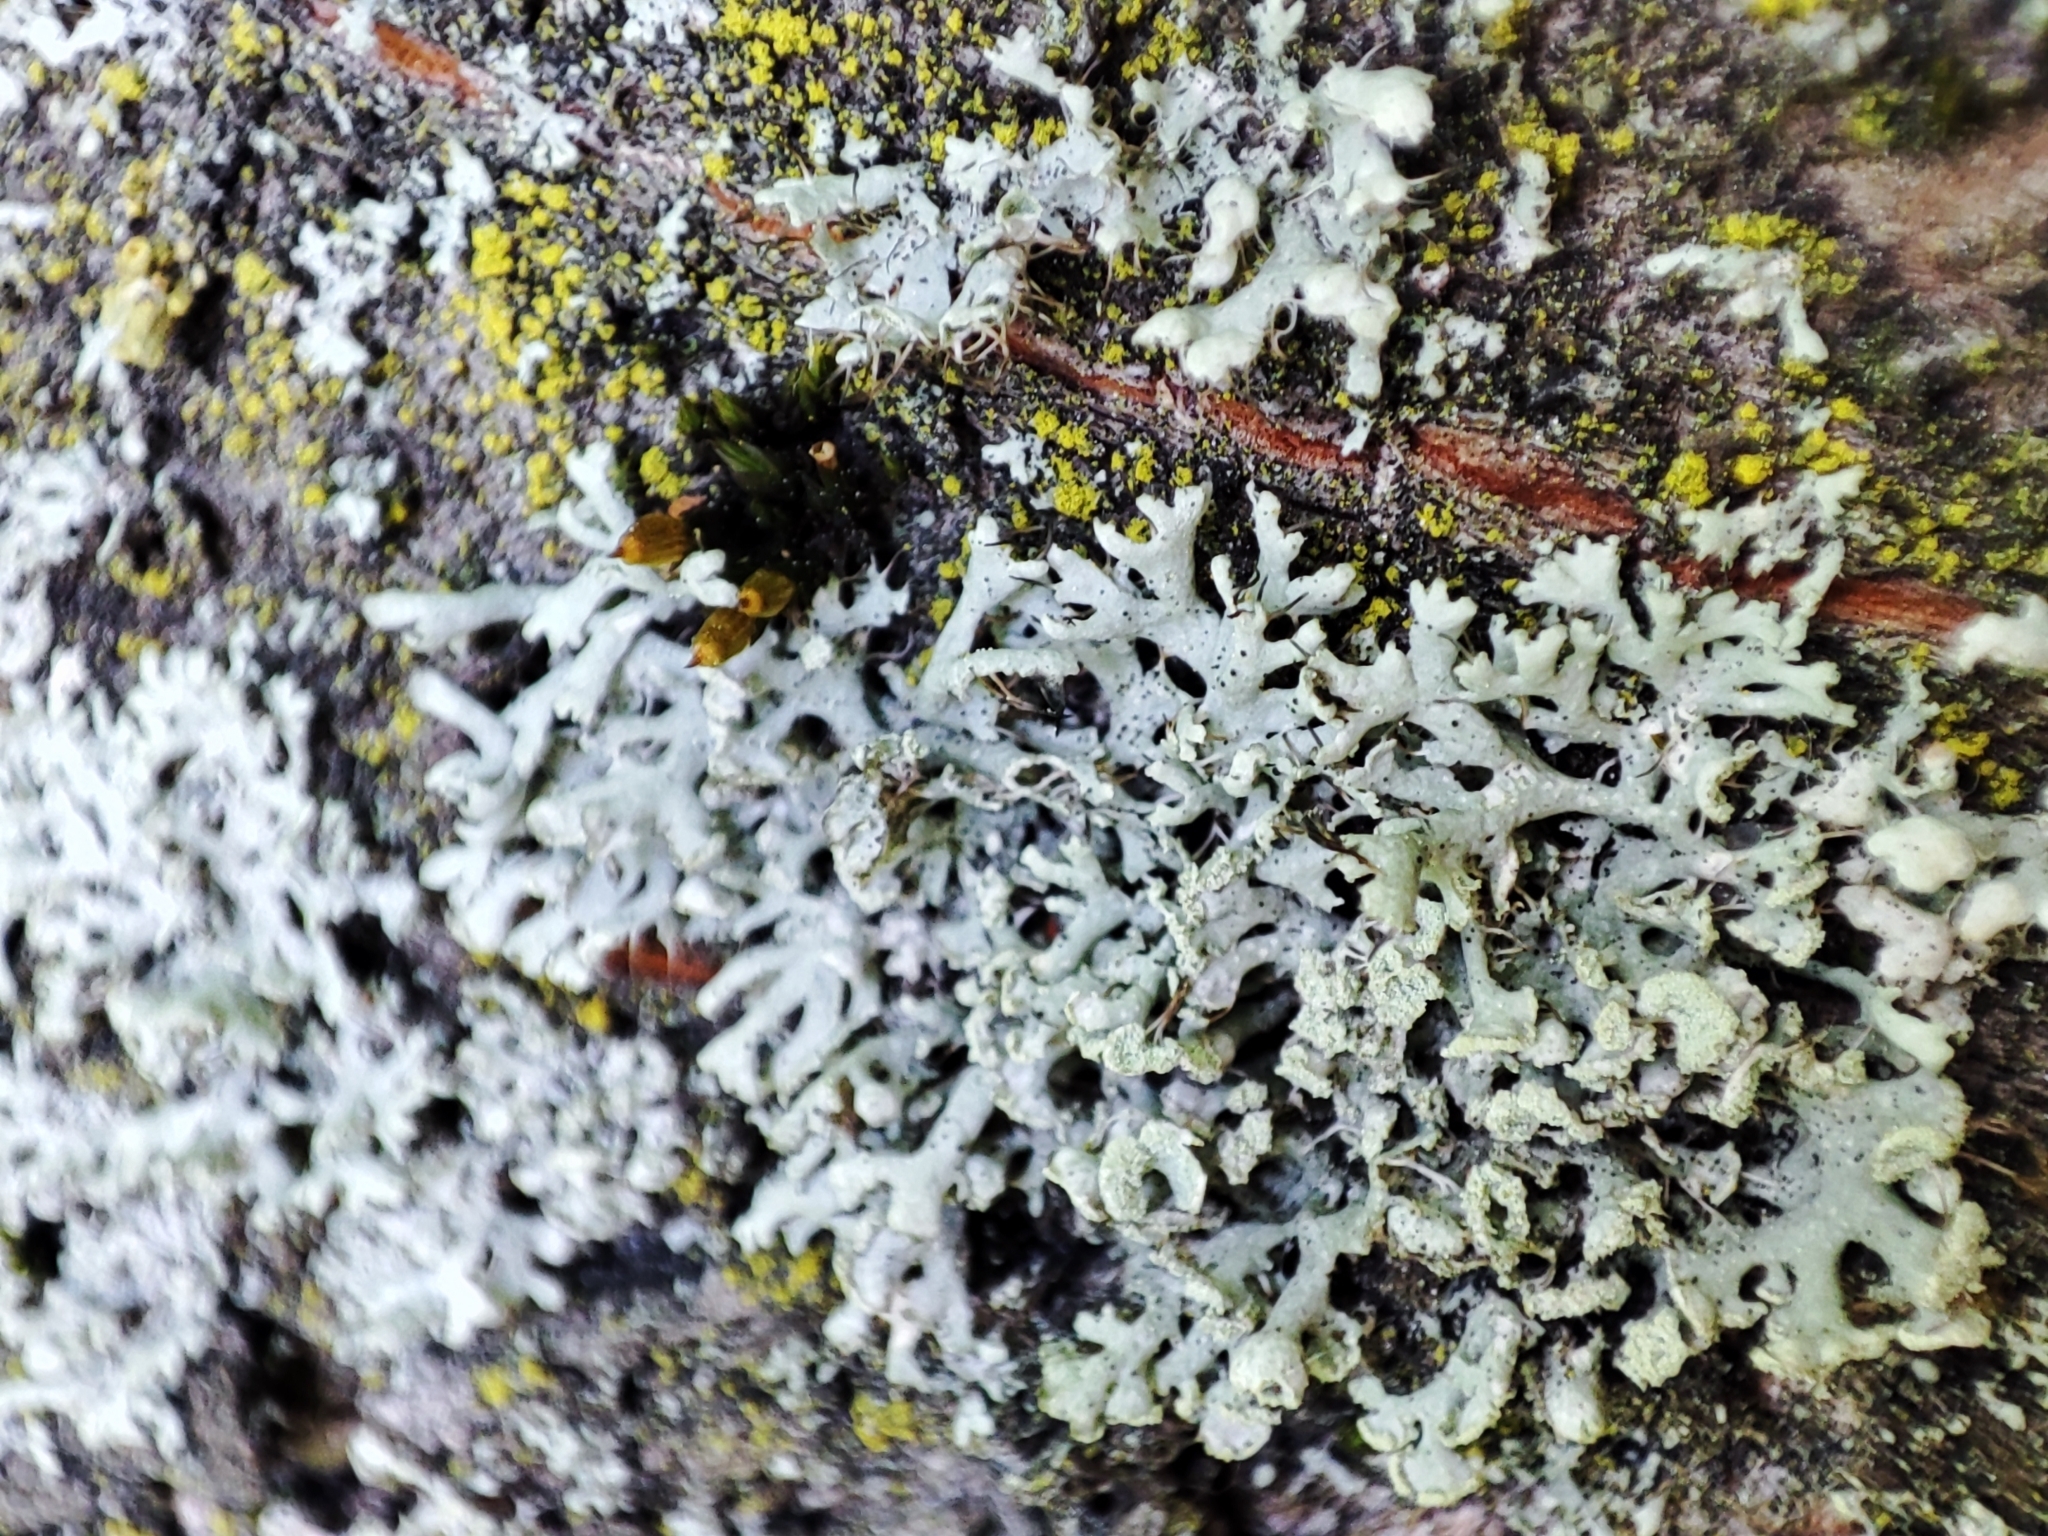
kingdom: Fungi
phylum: Ascomycota
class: Lecanoromycetes
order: Caliciales
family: Physciaceae
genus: Physcia
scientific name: Physcia tenella
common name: Fringed rosette lichen
